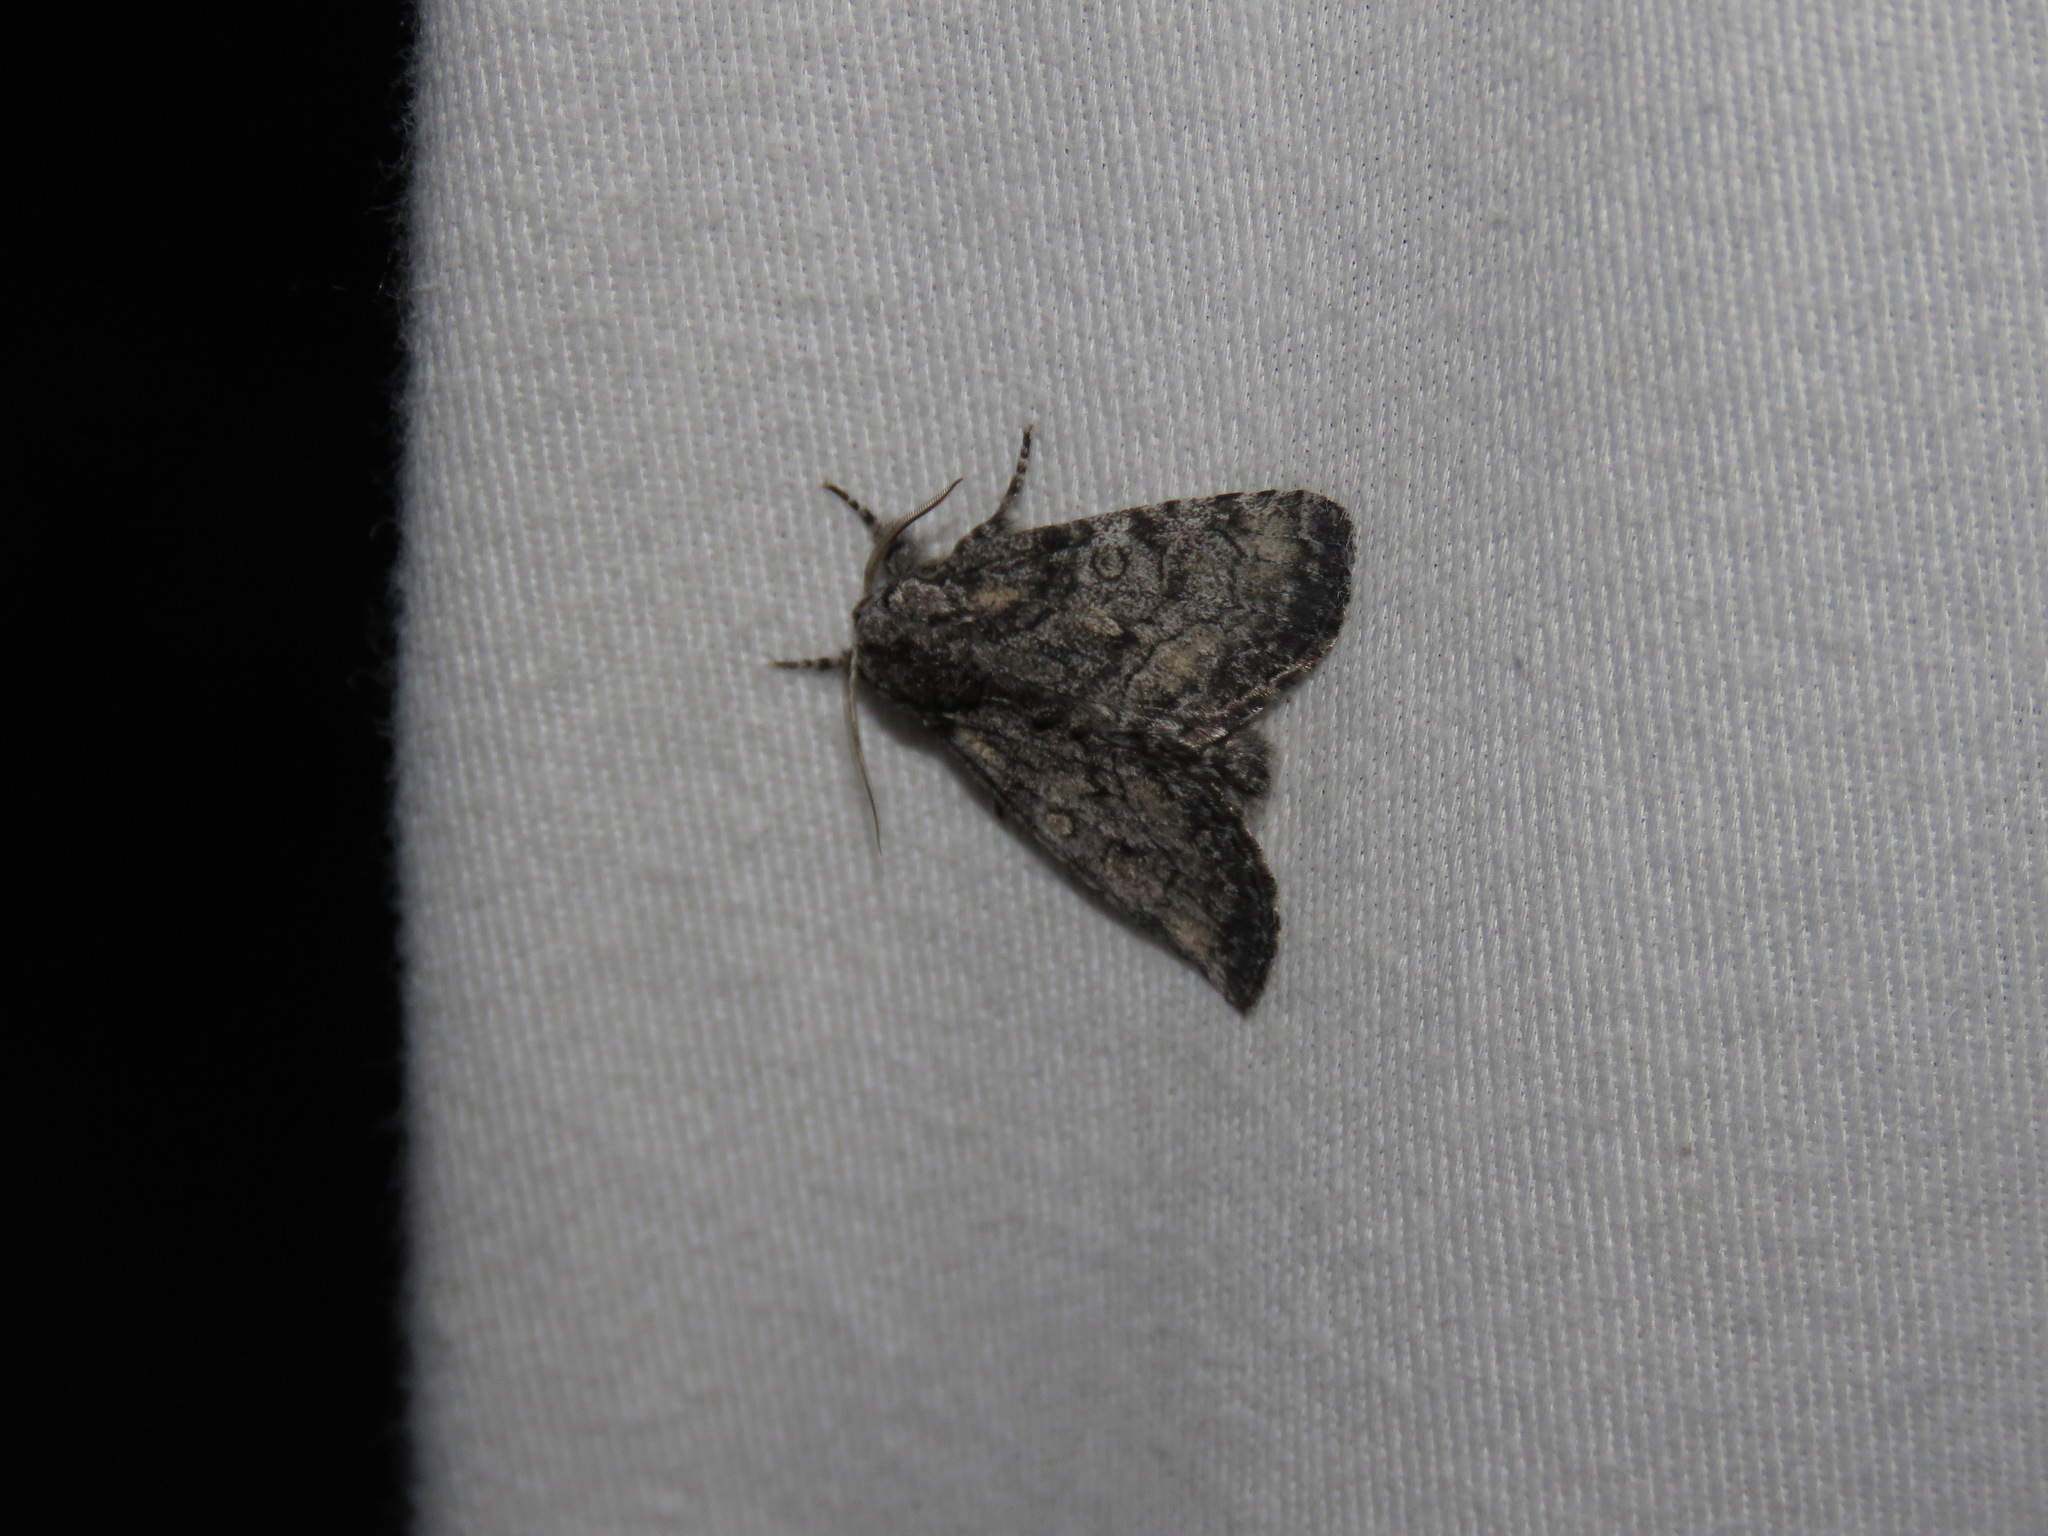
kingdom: Animalia
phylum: Arthropoda
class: Insecta
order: Lepidoptera
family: Noctuidae
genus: Raphia
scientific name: Raphia frater
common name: Brother
